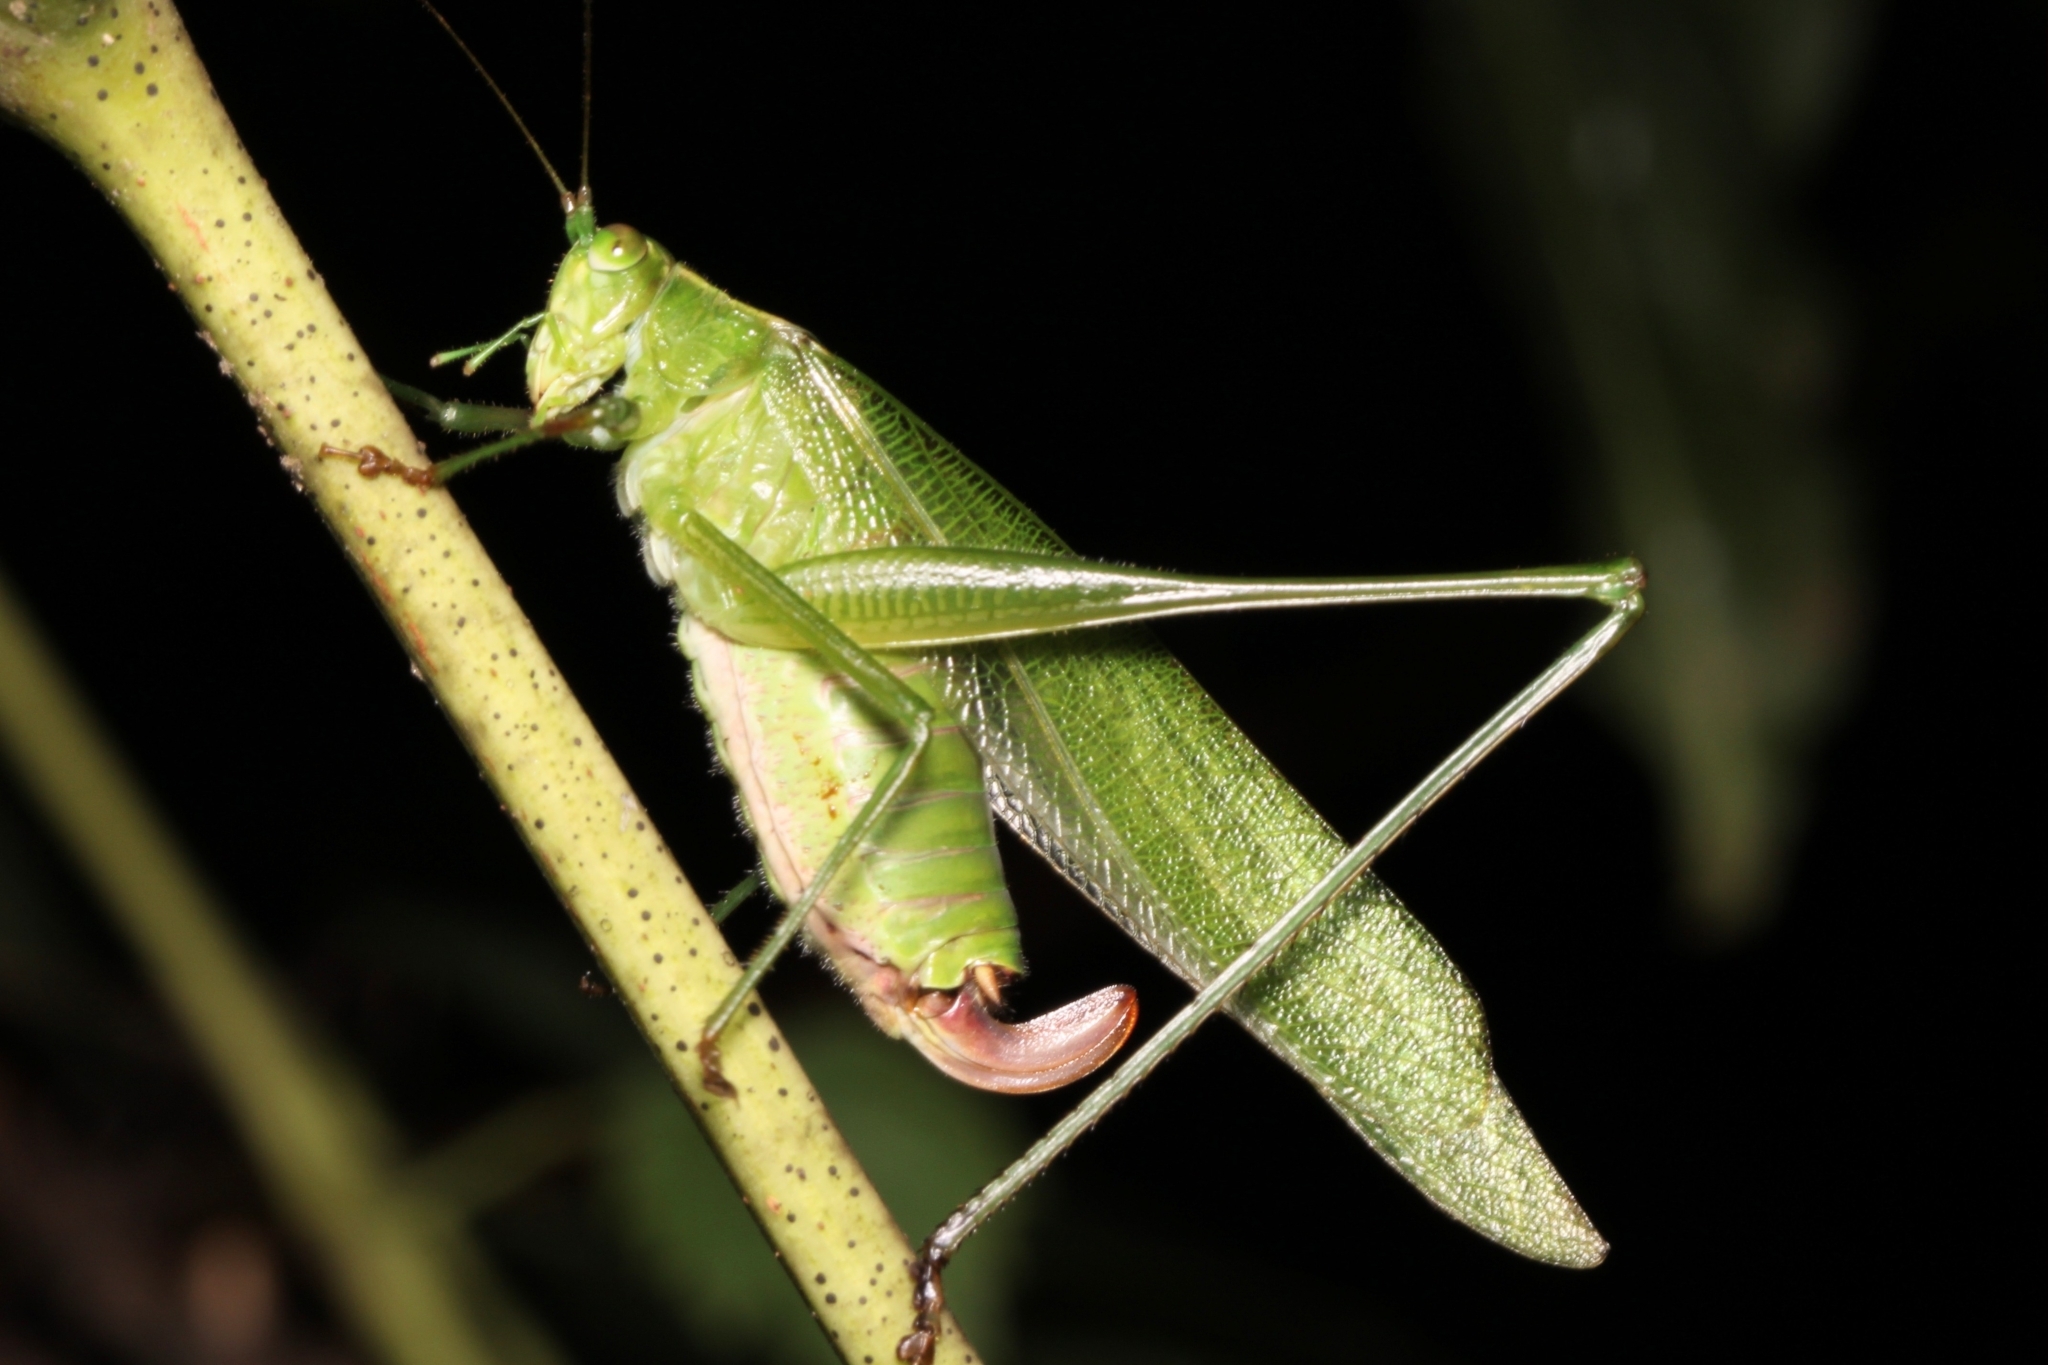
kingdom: Animalia
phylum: Arthropoda
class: Insecta
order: Orthoptera
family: Tettigoniidae
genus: Scudderia
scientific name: Scudderia furcata
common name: Fork-tailed bush katydid
